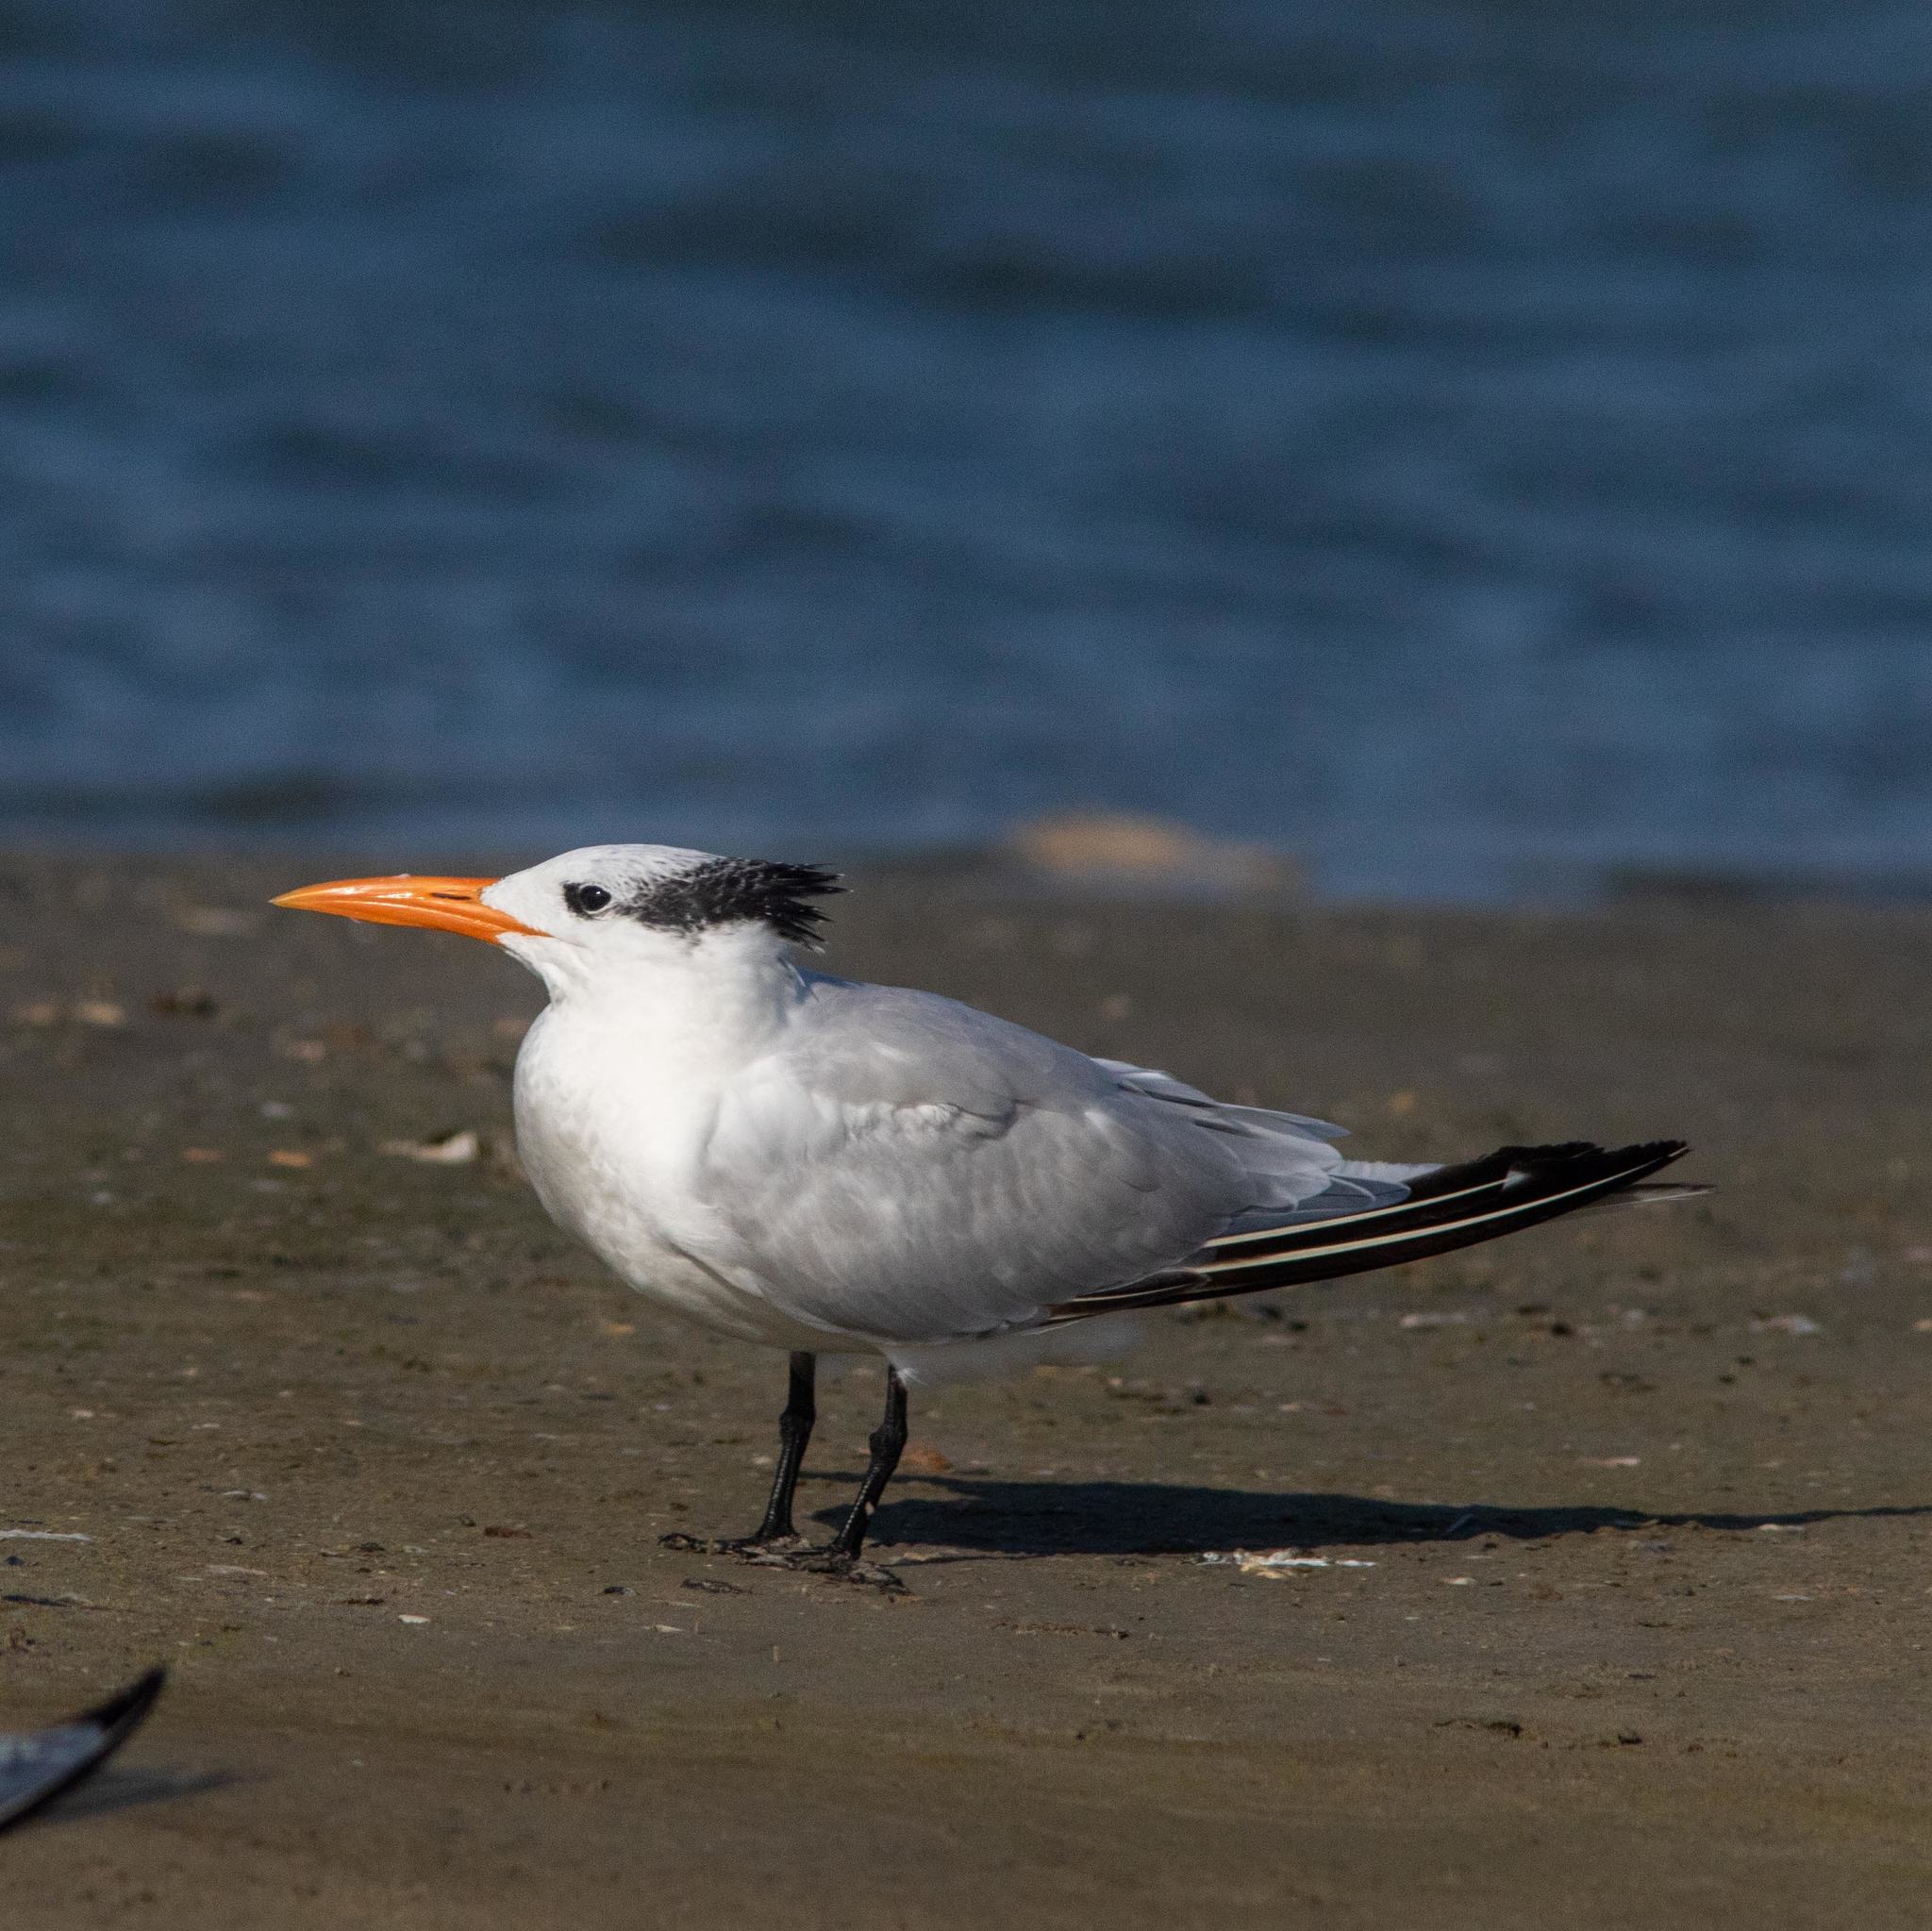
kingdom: Animalia
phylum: Chordata
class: Aves
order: Charadriiformes
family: Laridae
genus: Thalasseus
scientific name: Thalasseus maximus
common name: Royal tern
